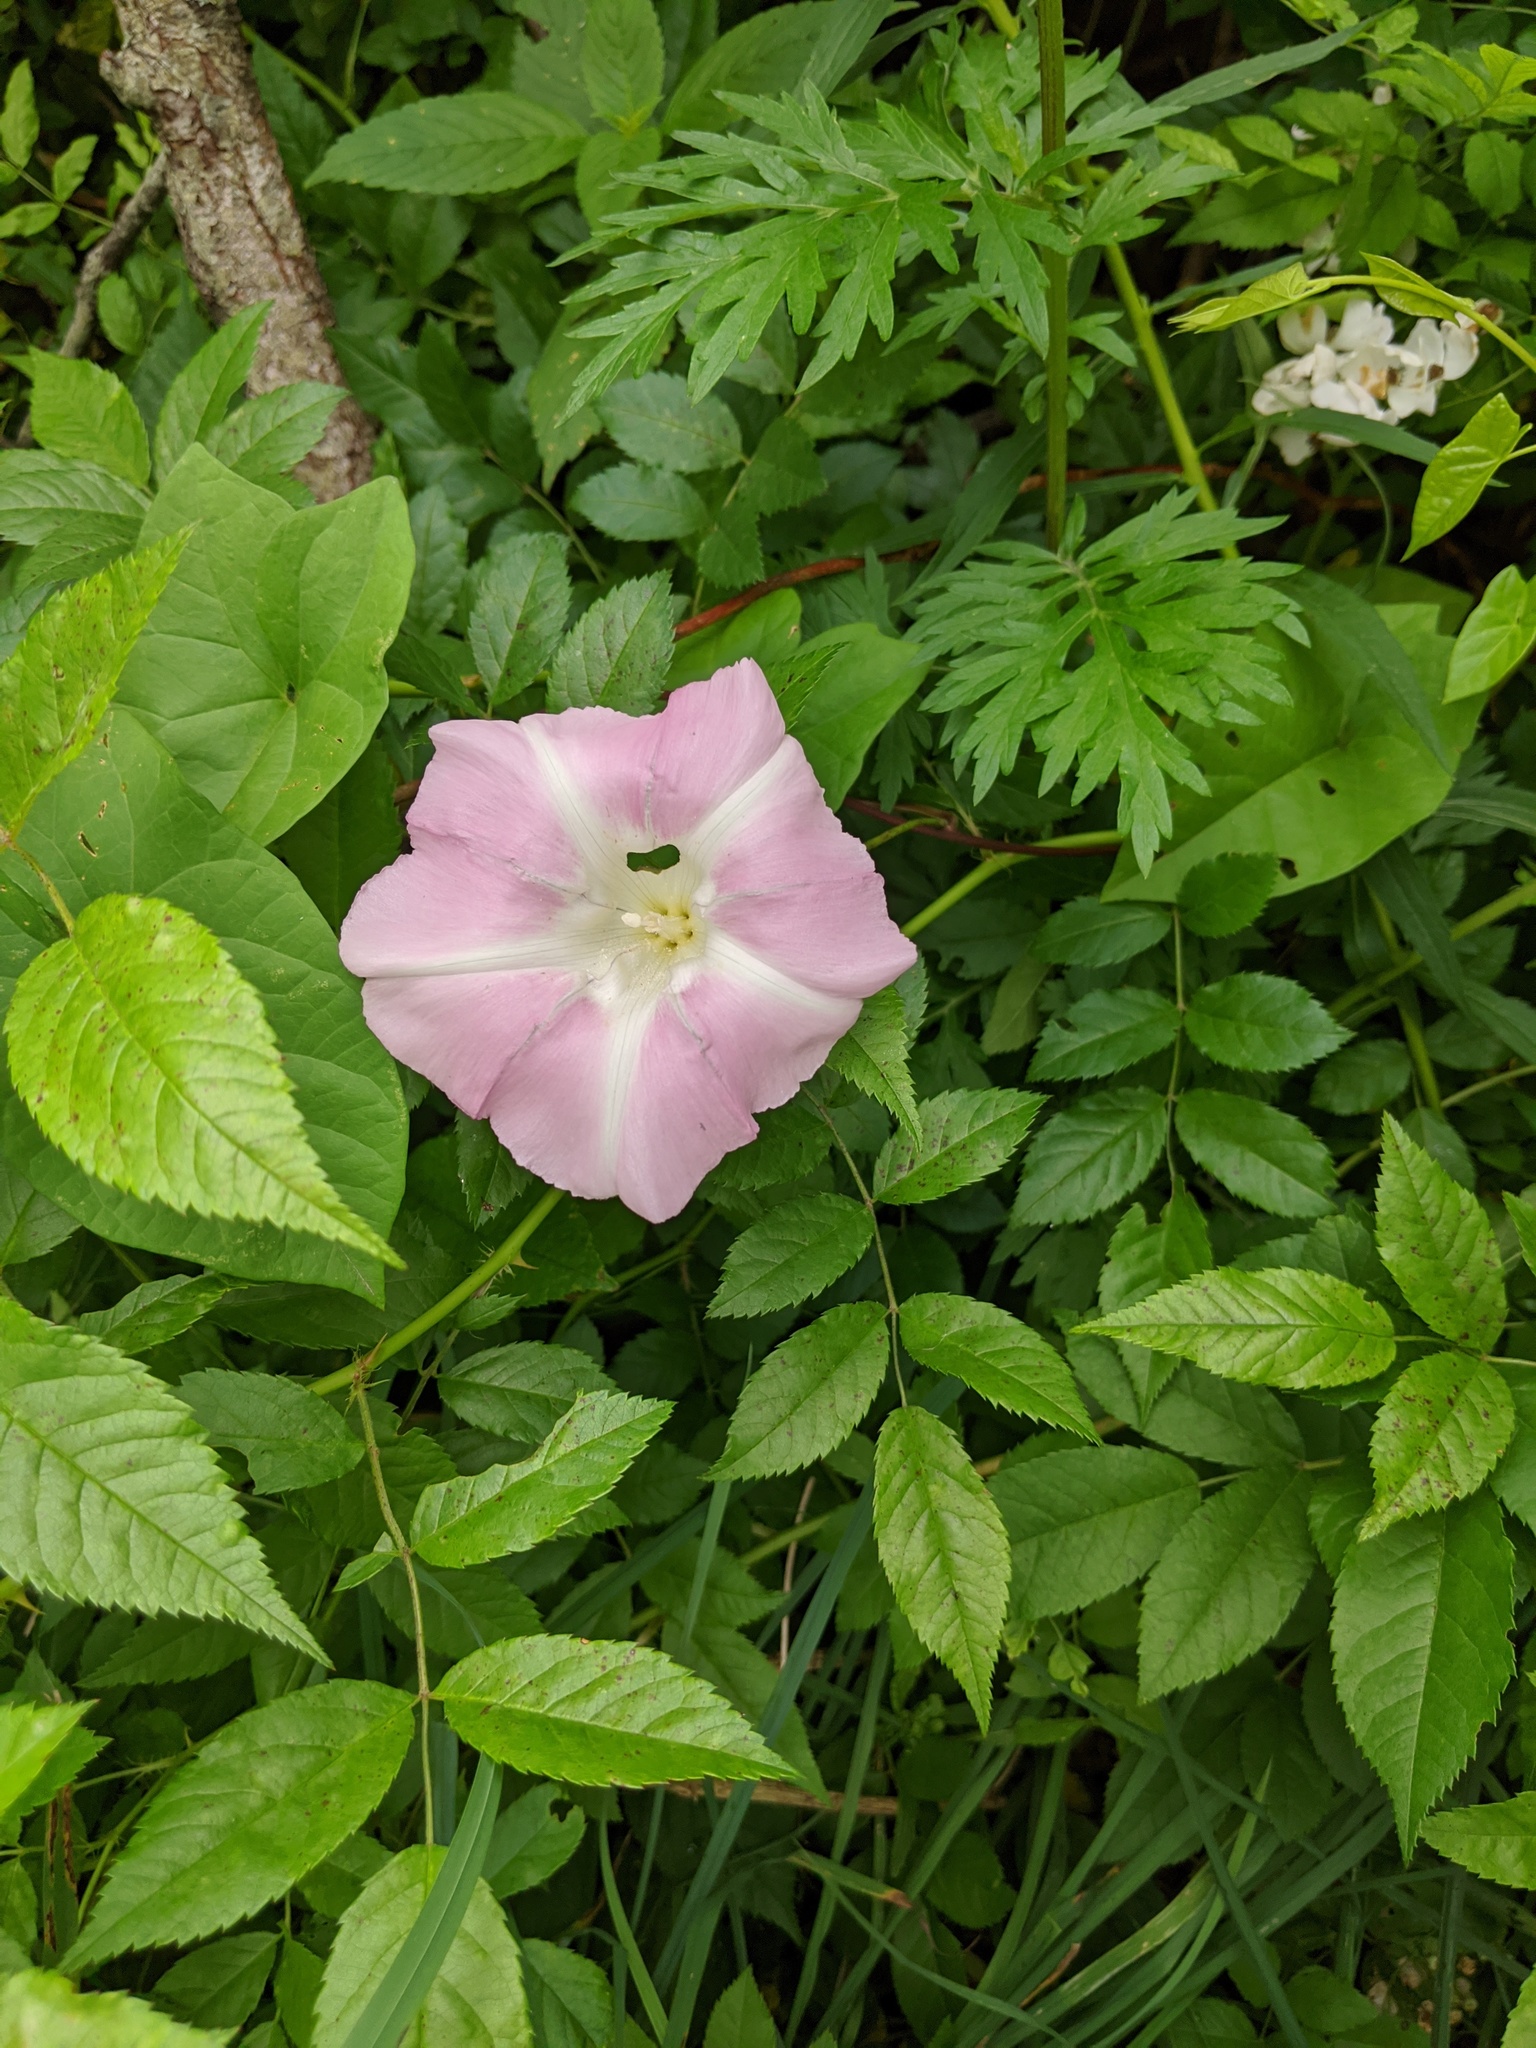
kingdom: Plantae
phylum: Tracheophyta
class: Magnoliopsida
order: Solanales
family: Convolvulaceae
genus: Calystegia
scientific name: Calystegia sepium
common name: Hedge bindweed
